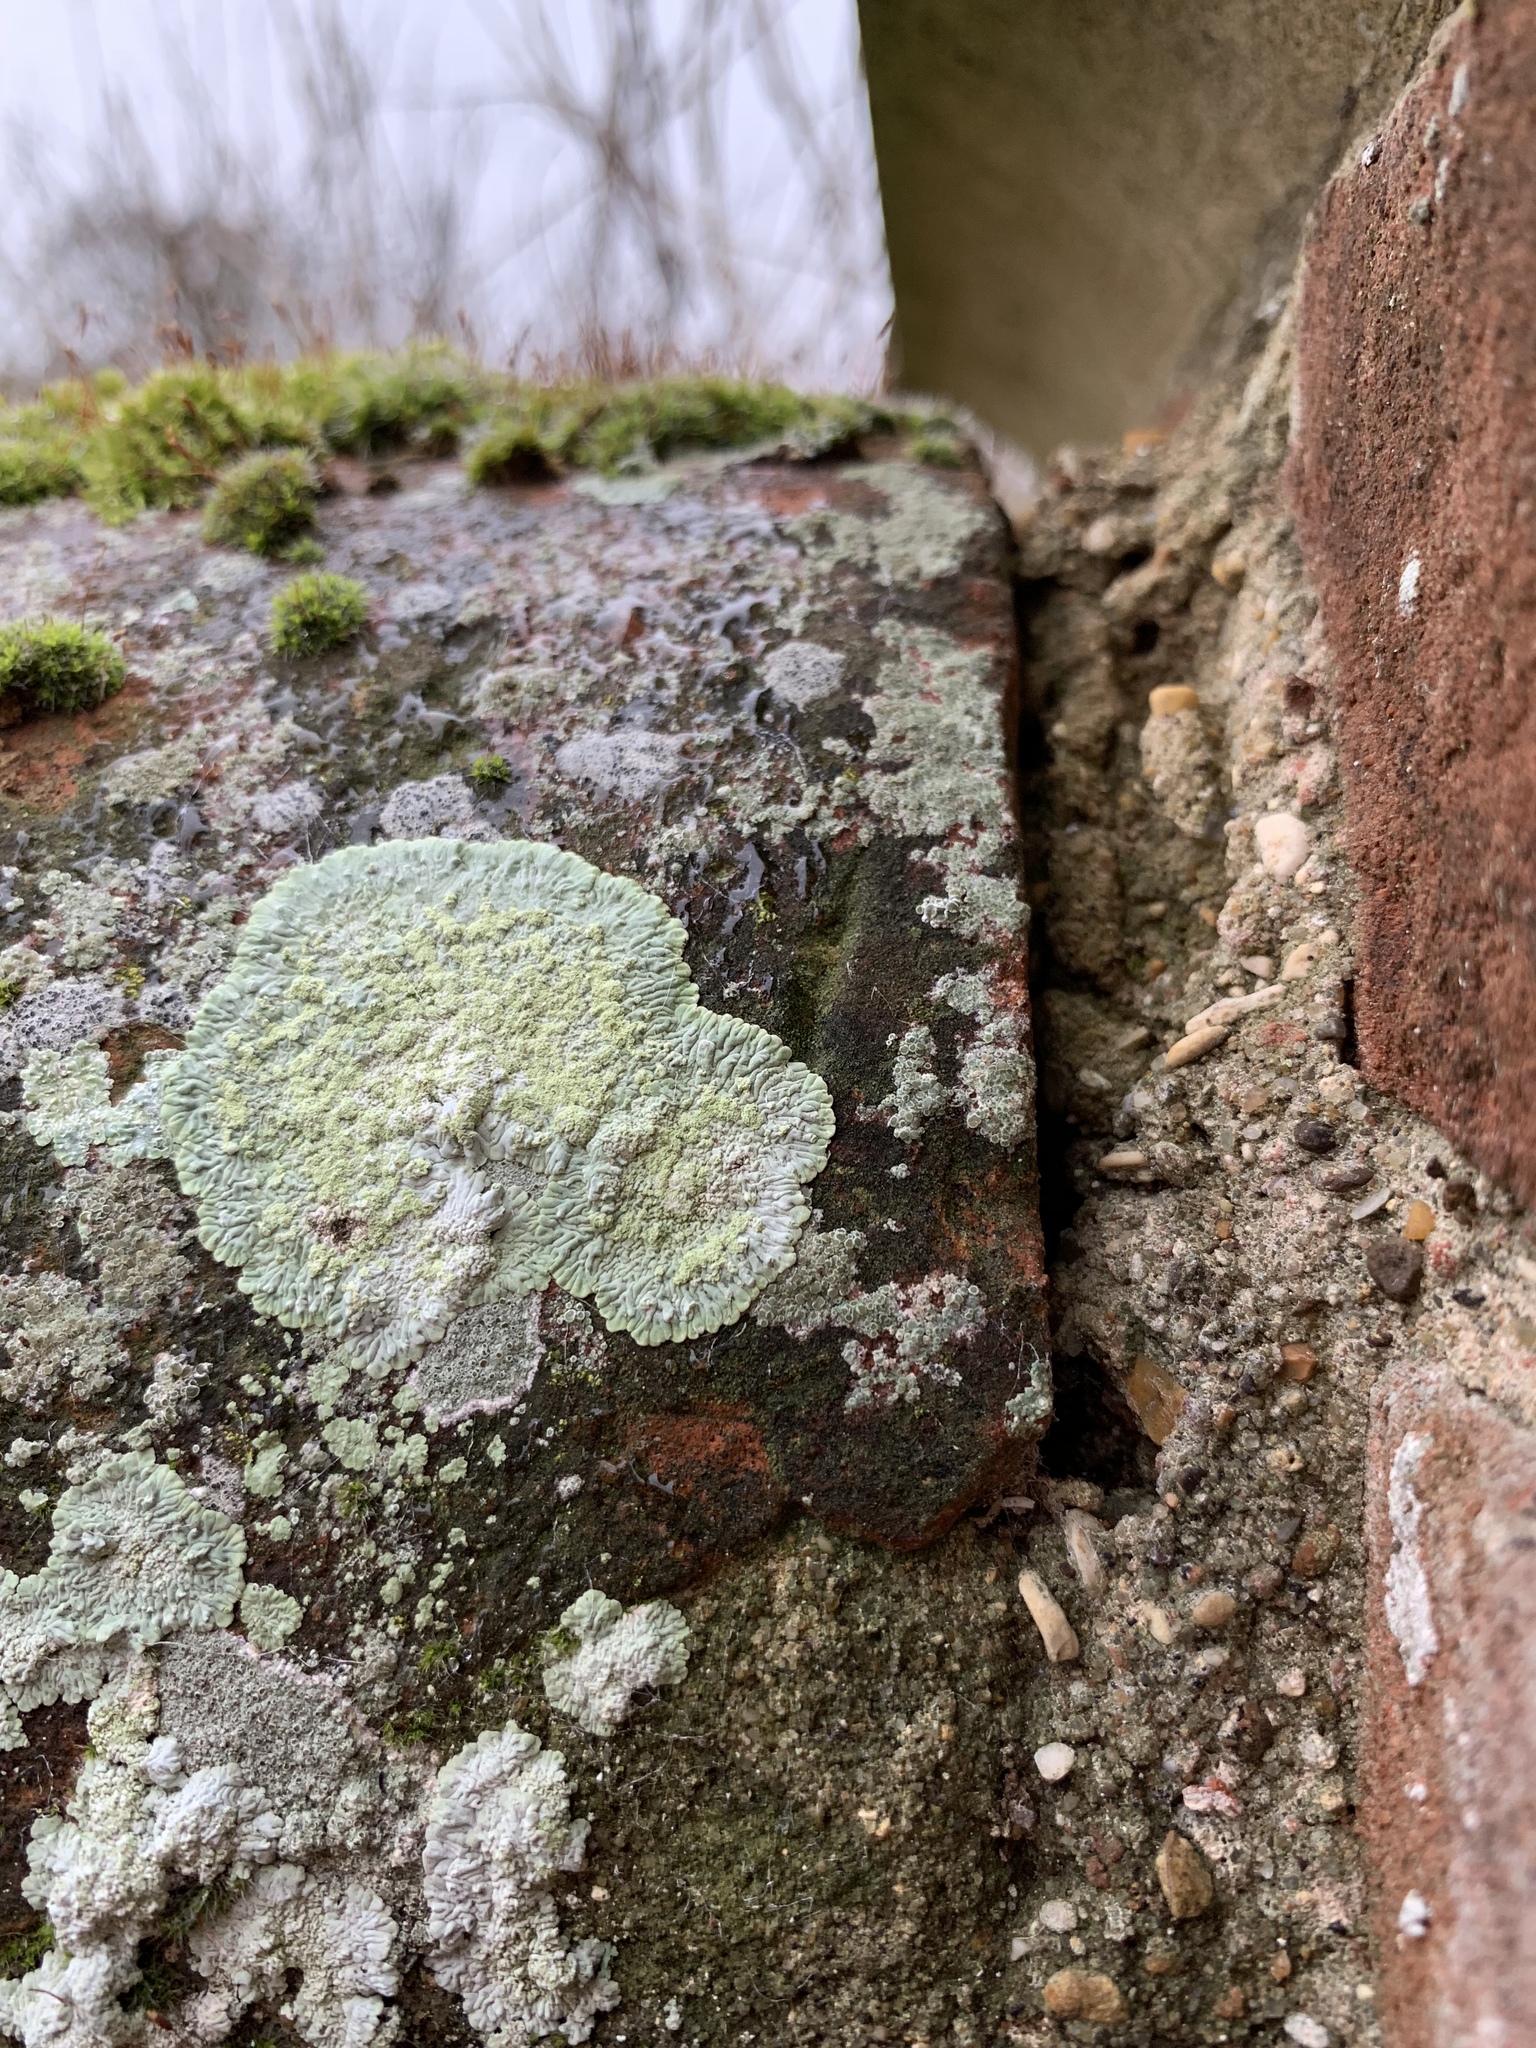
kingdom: Fungi
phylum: Ascomycota
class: Lecanoromycetes
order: Caliciales
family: Caliciaceae
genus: Diploicia
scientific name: Diploicia canescens
